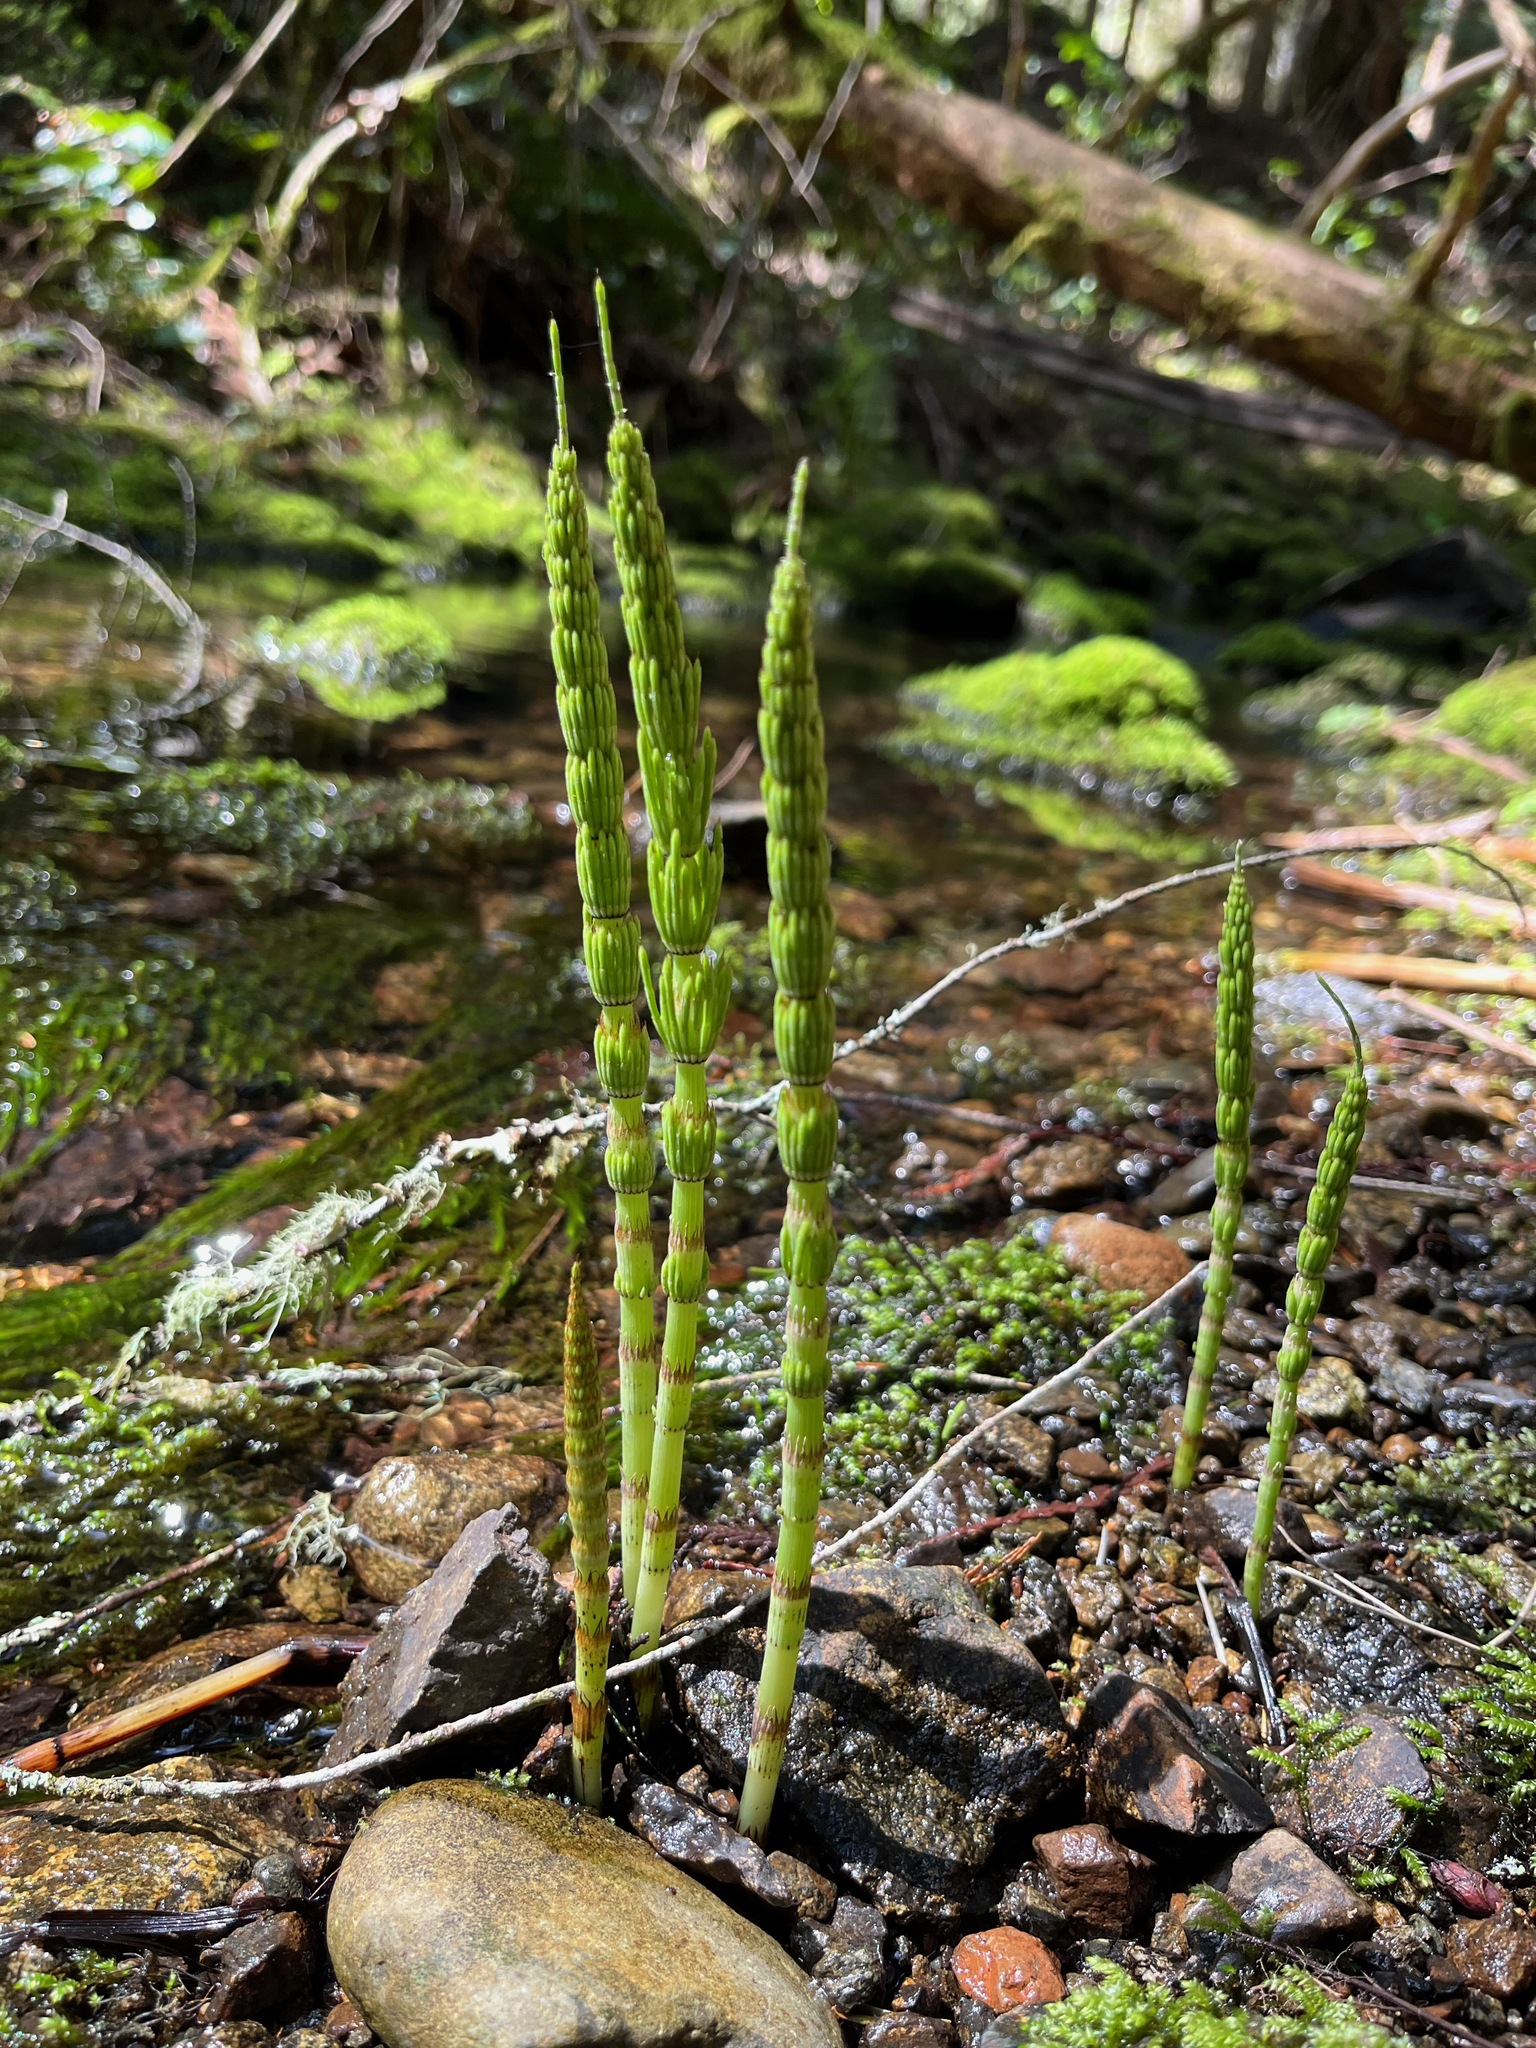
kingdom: Plantae
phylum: Tracheophyta
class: Polypodiopsida
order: Equisetales
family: Equisetaceae
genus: Equisetum
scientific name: Equisetum telmateia
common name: Great horsetail
